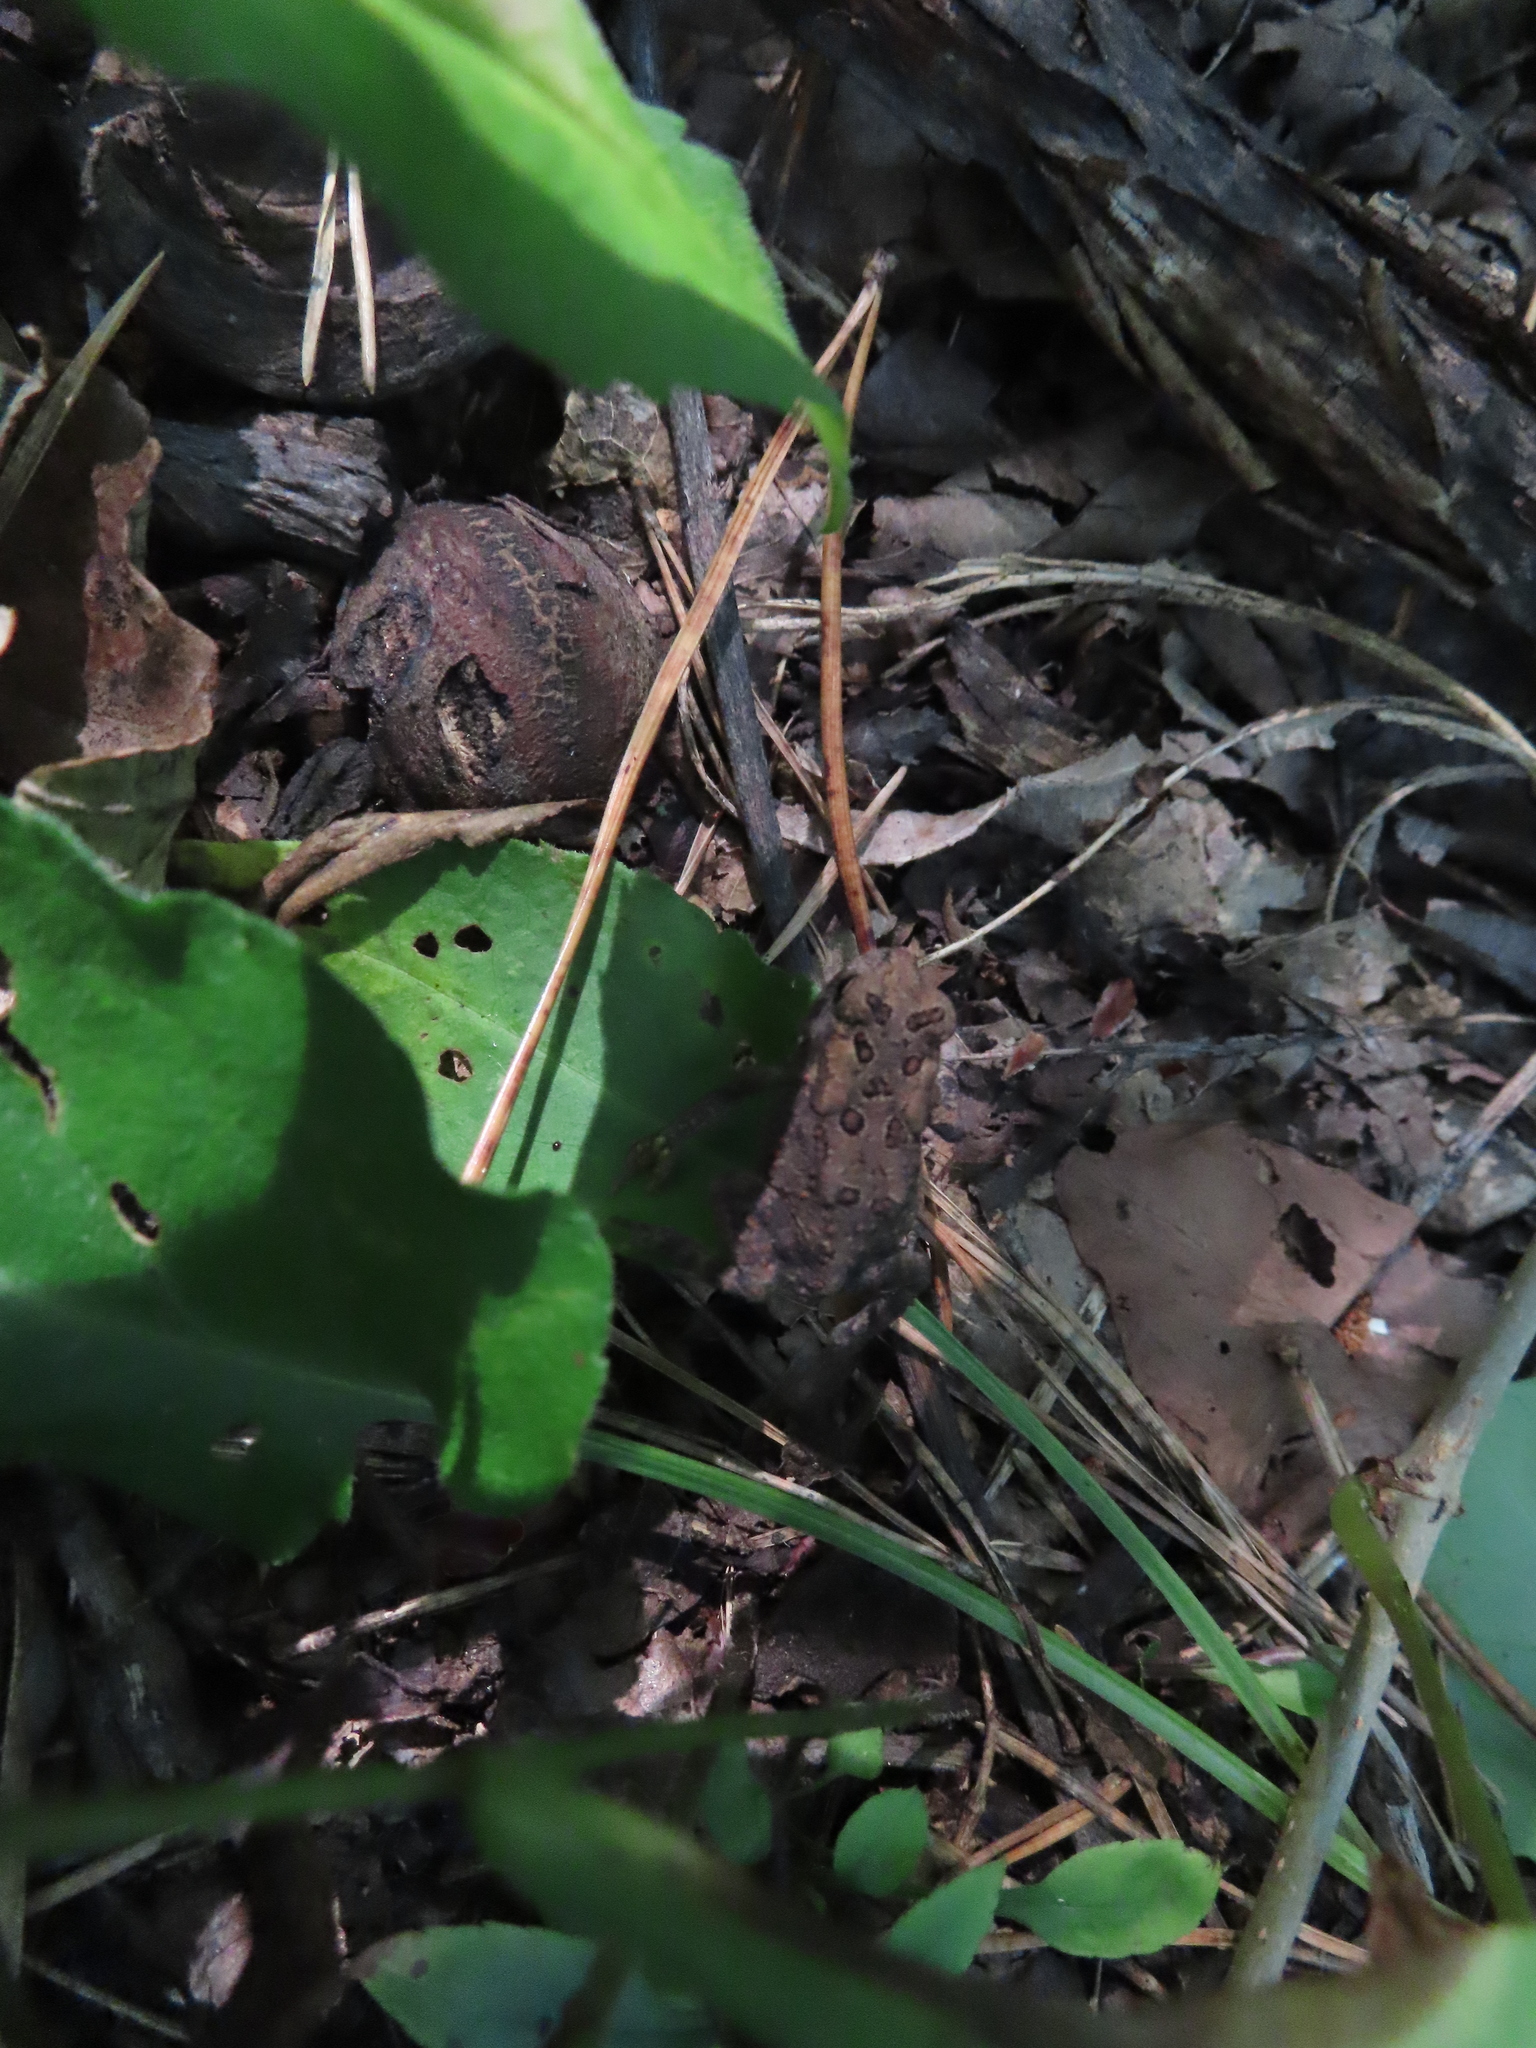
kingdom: Animalia
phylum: Chordata
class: Amphibia
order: Anura
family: Bufonidae
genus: Anaxyrus
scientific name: Anaxyrus americanus
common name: American toad
